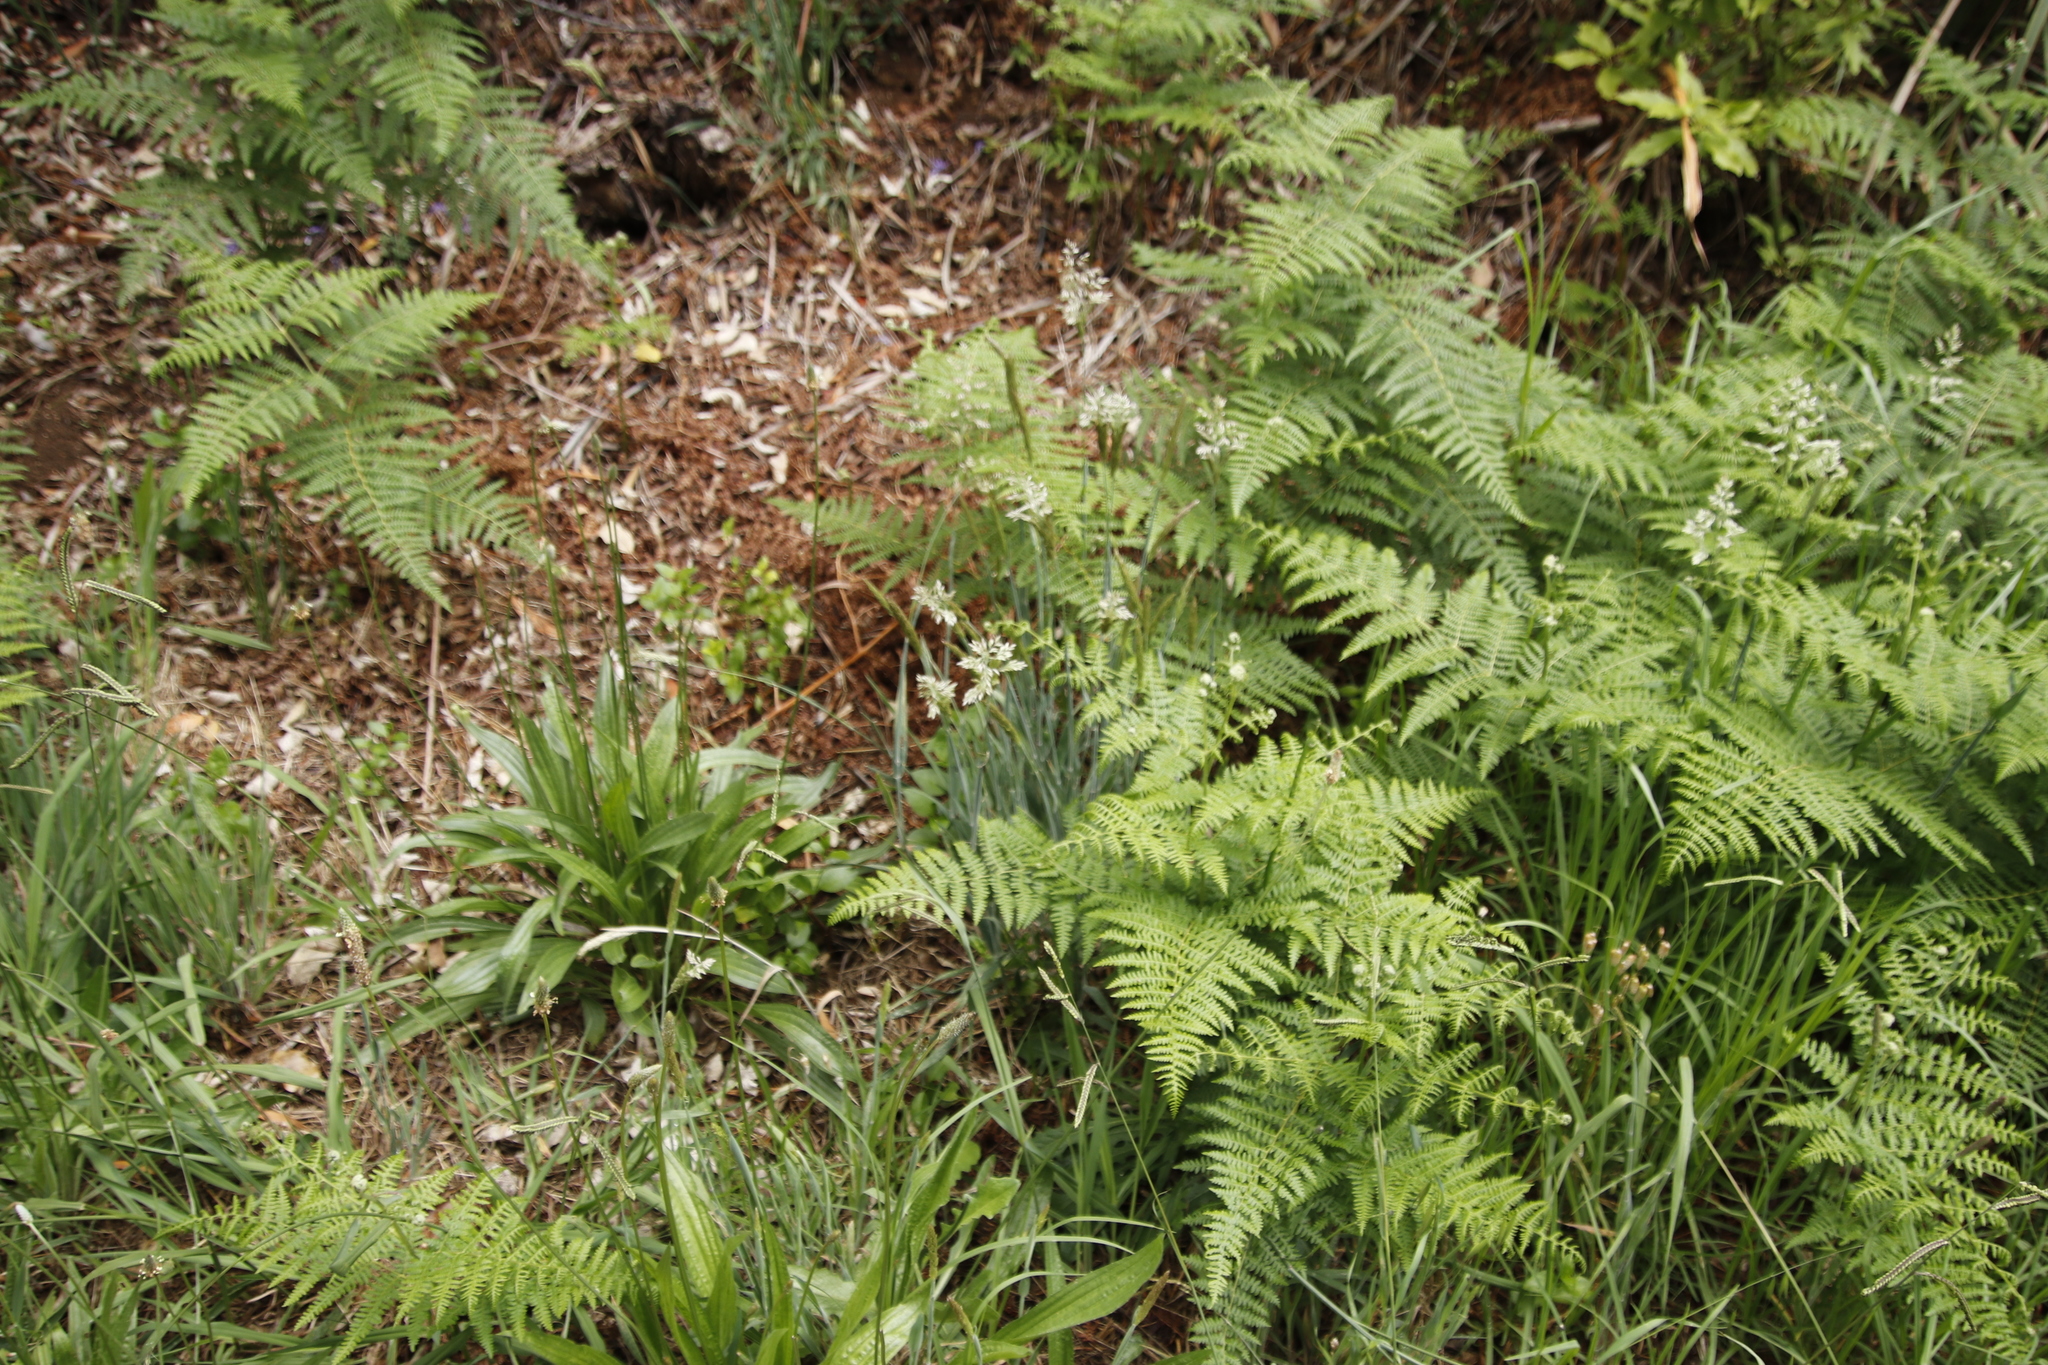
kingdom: Plantae
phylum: Tracheophyta
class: Liliopsida
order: Poales
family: Poaceae
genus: Holcus
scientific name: Holcus lanatus
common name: Yorkshire-fog
